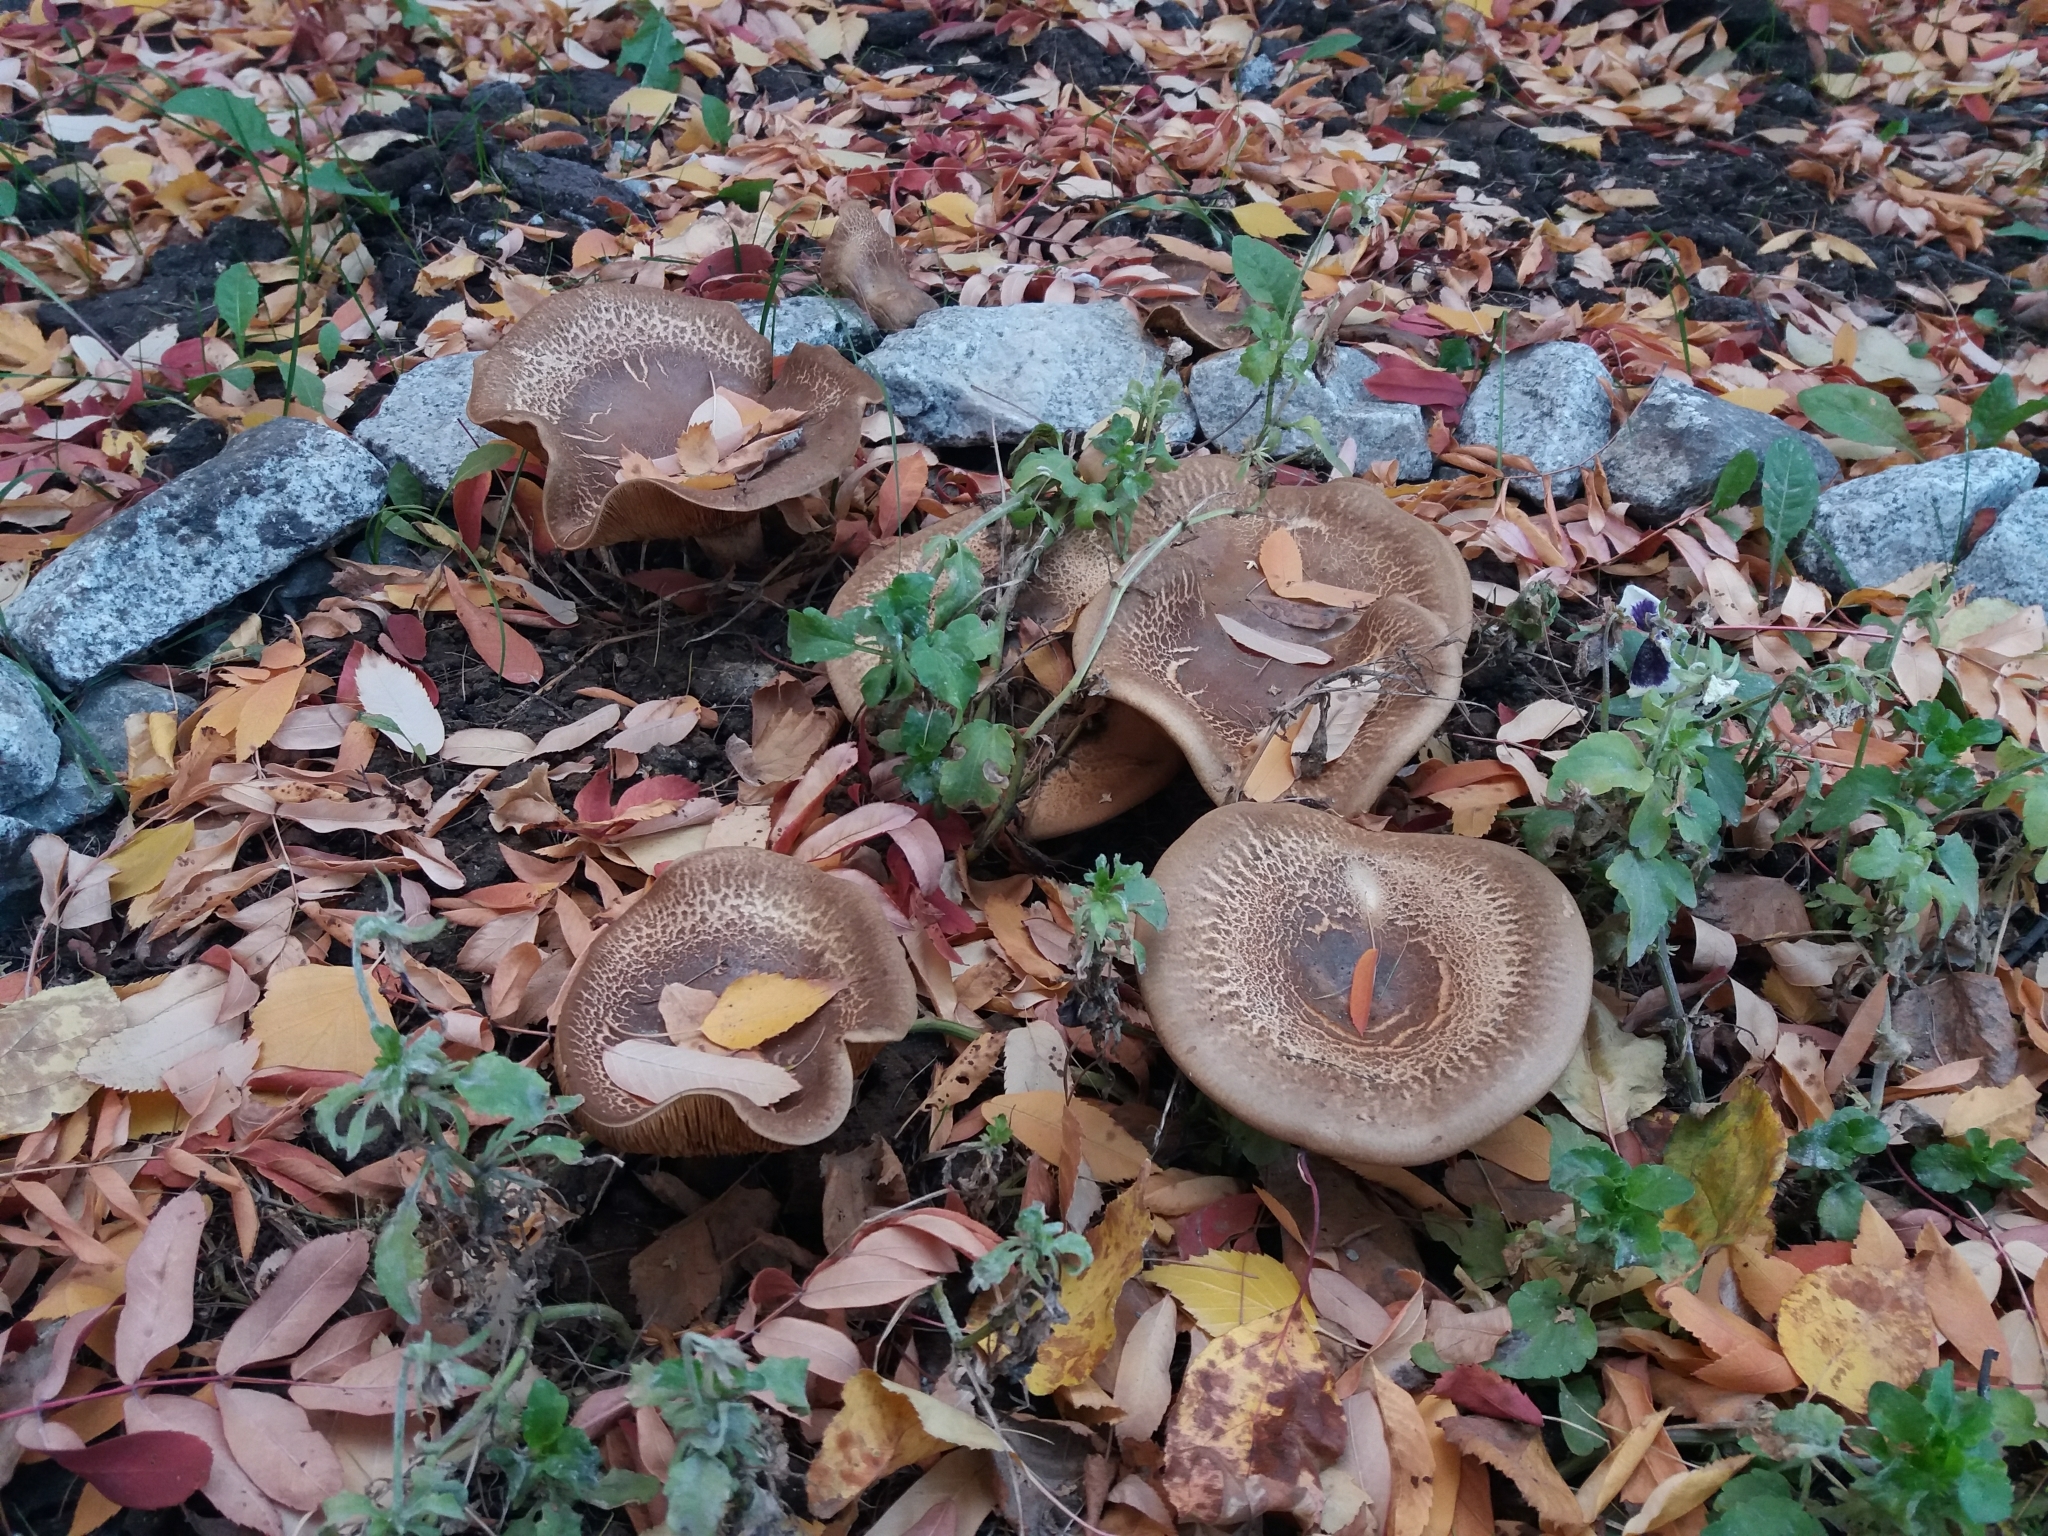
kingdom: Fungi
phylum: Basidiomycota
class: Agaricomycetes
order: Boletales
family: Paxillaceae
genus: Paxillus
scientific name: Paxillus involutus
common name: Brown roll rim
